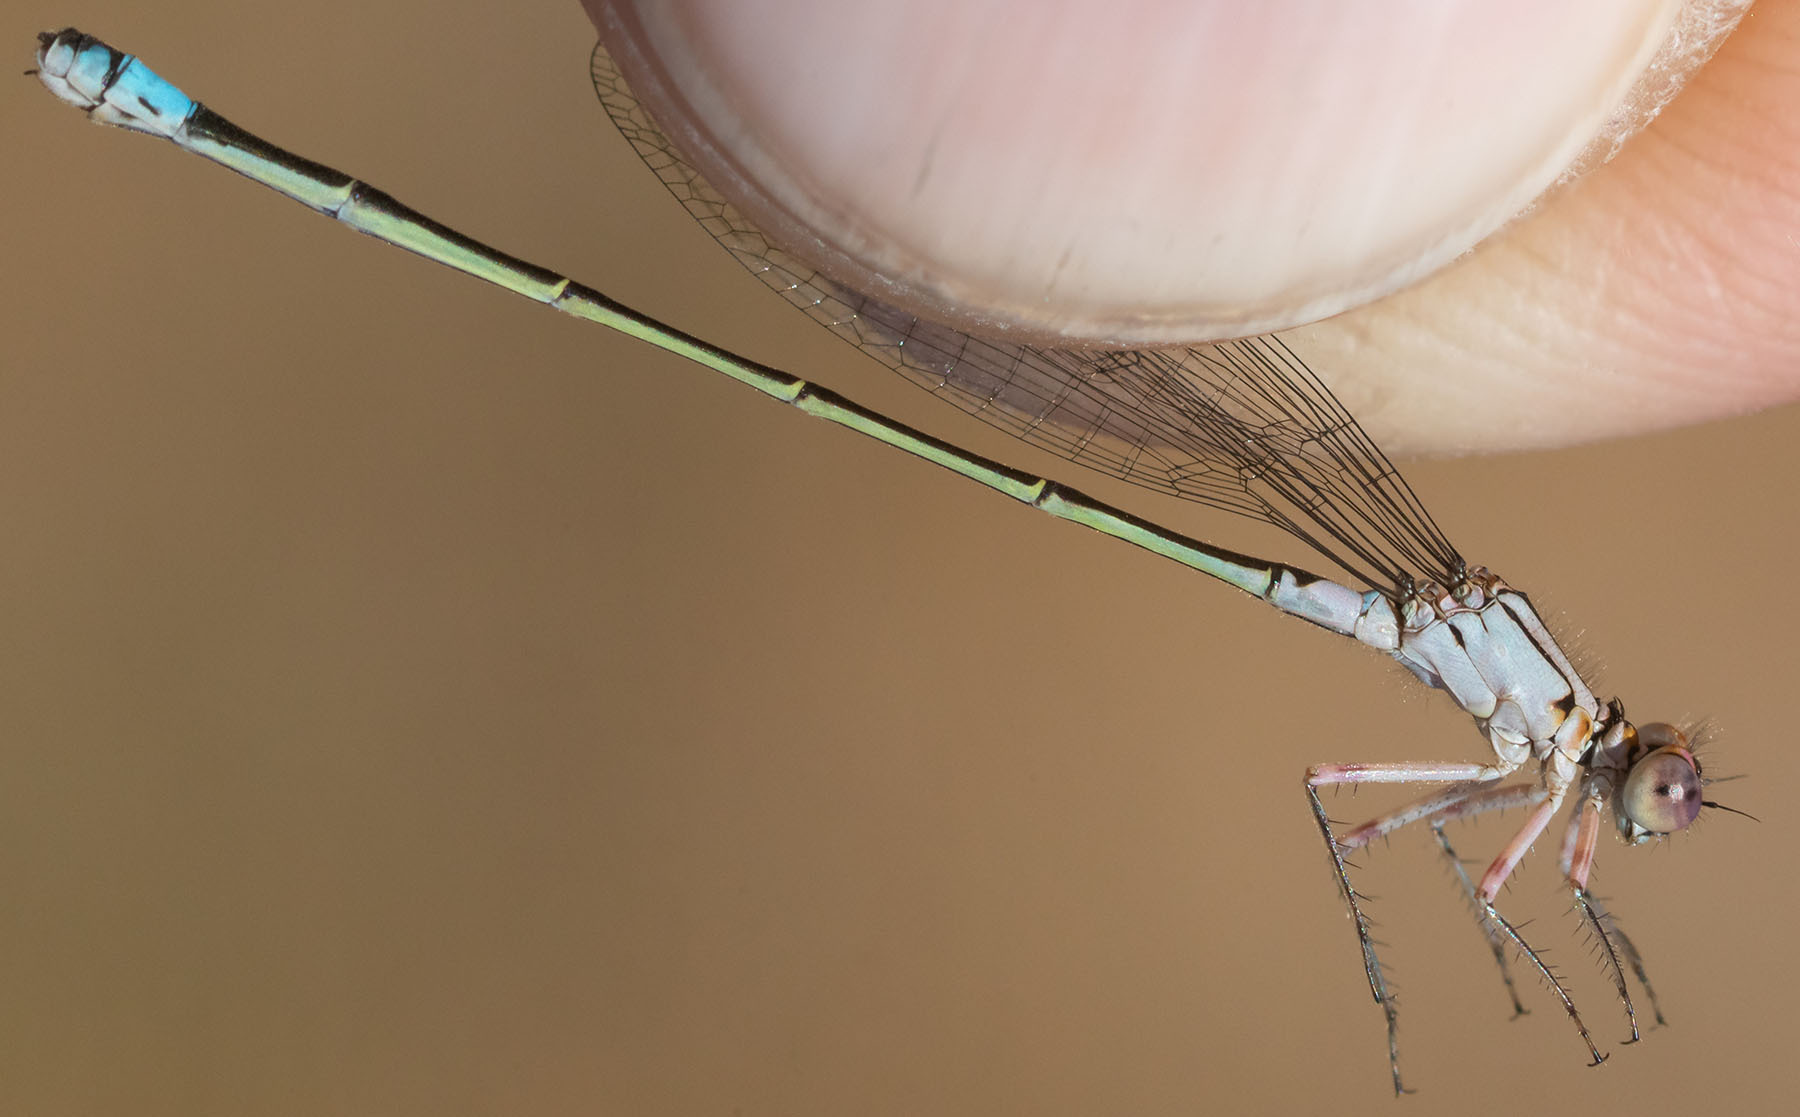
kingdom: Animalia
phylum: Arthropoda
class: Insecta
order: Odonata
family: Coenagrionidae
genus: Ischnura
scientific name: Ischnura cervula
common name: Pacific forktail
